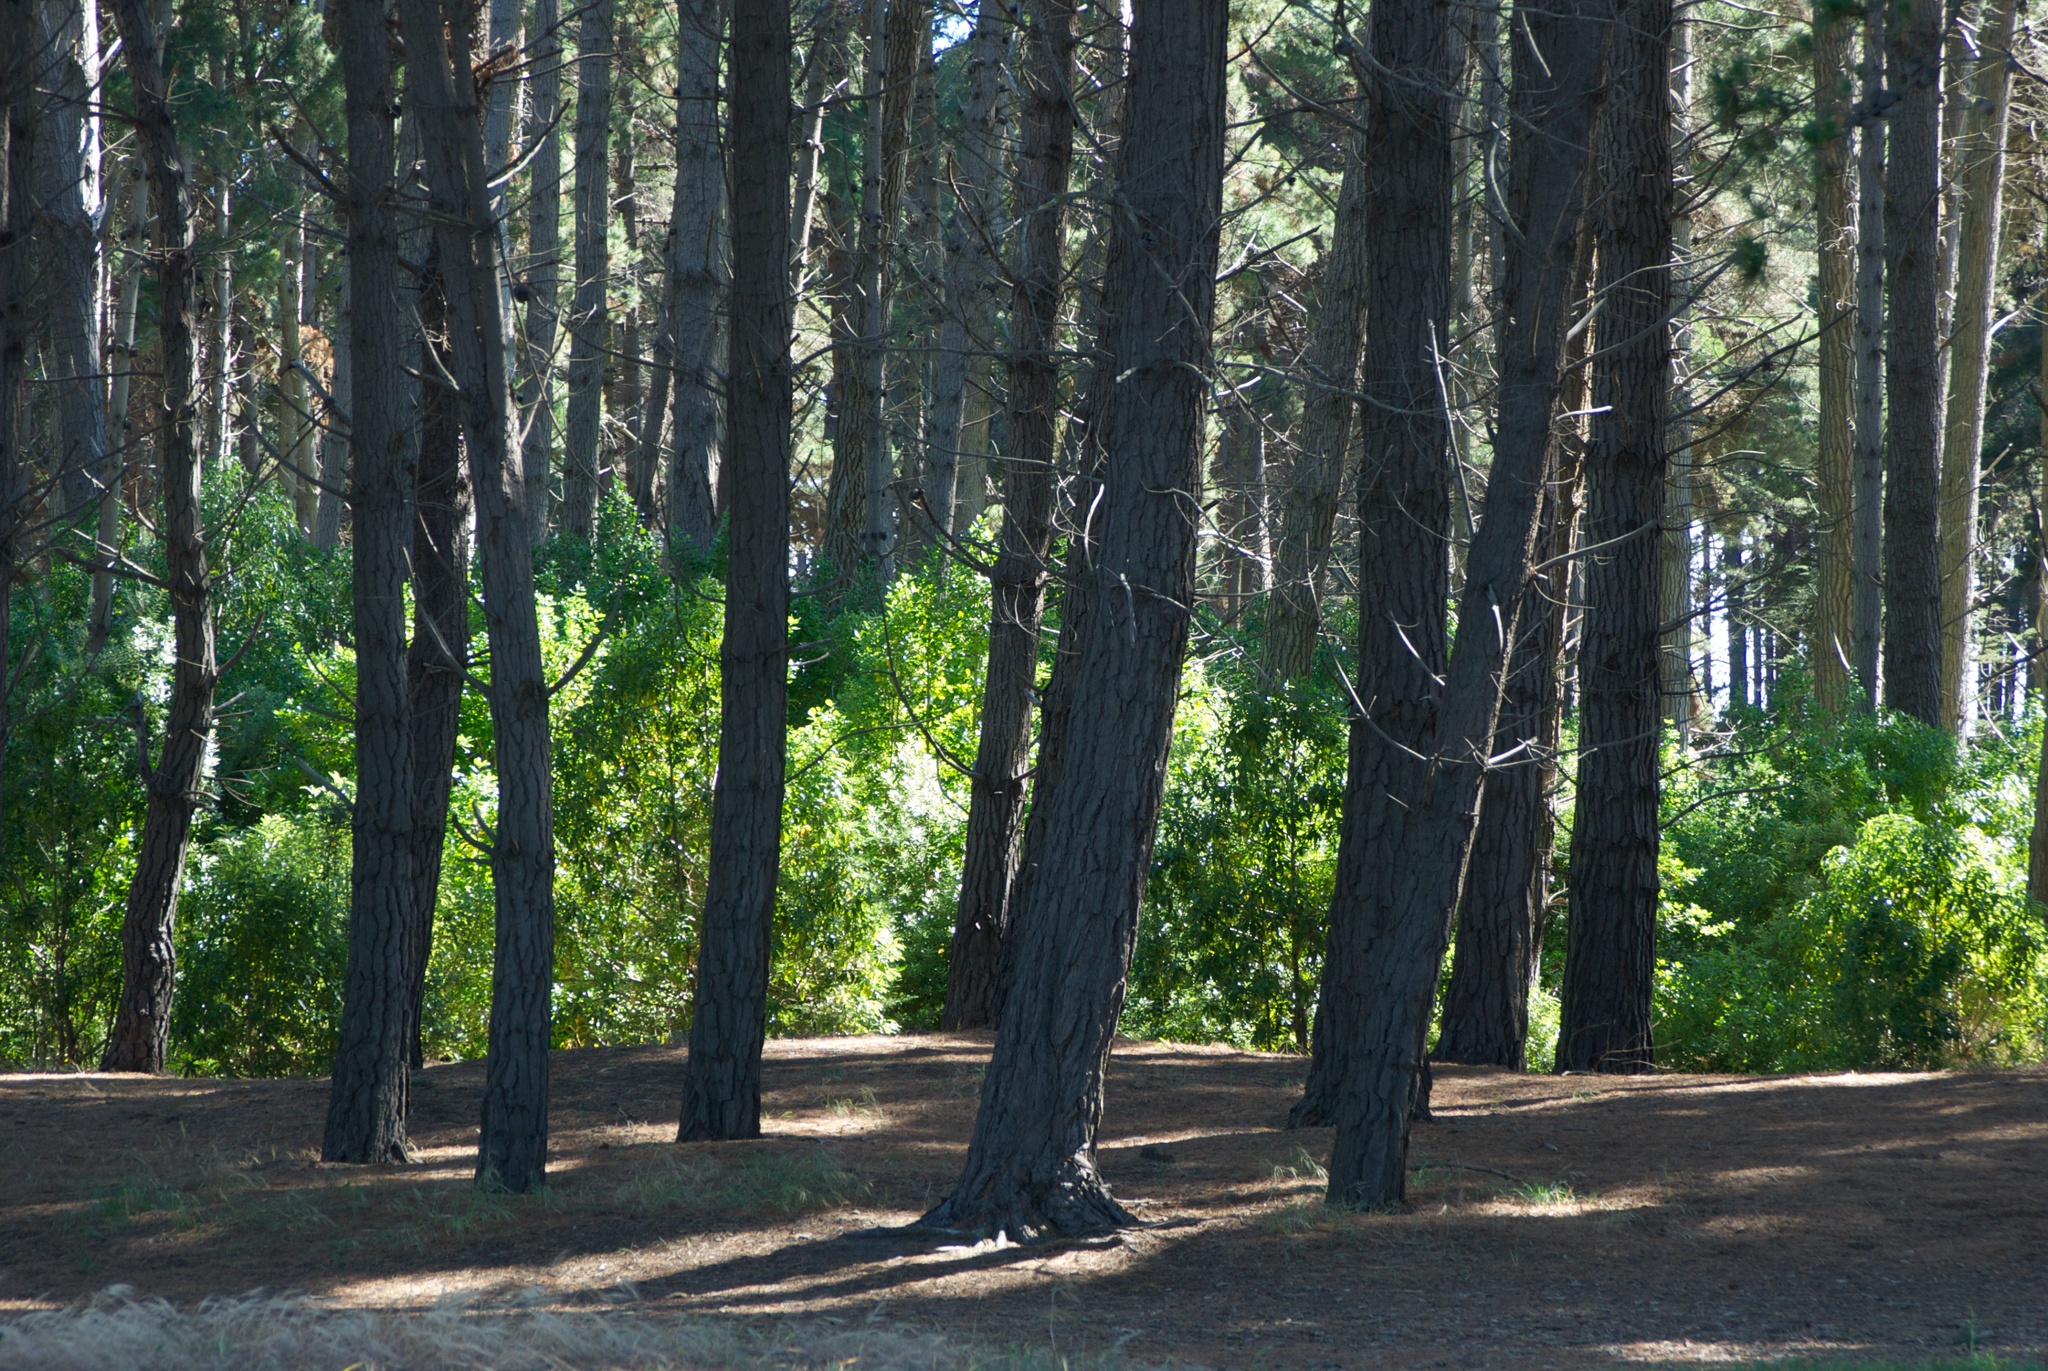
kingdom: Plantae
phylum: Tracheophyta
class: Pinopsida
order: Pinales
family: Pinaceae
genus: Pinus
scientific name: Pinus radiata
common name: Monterey pine
